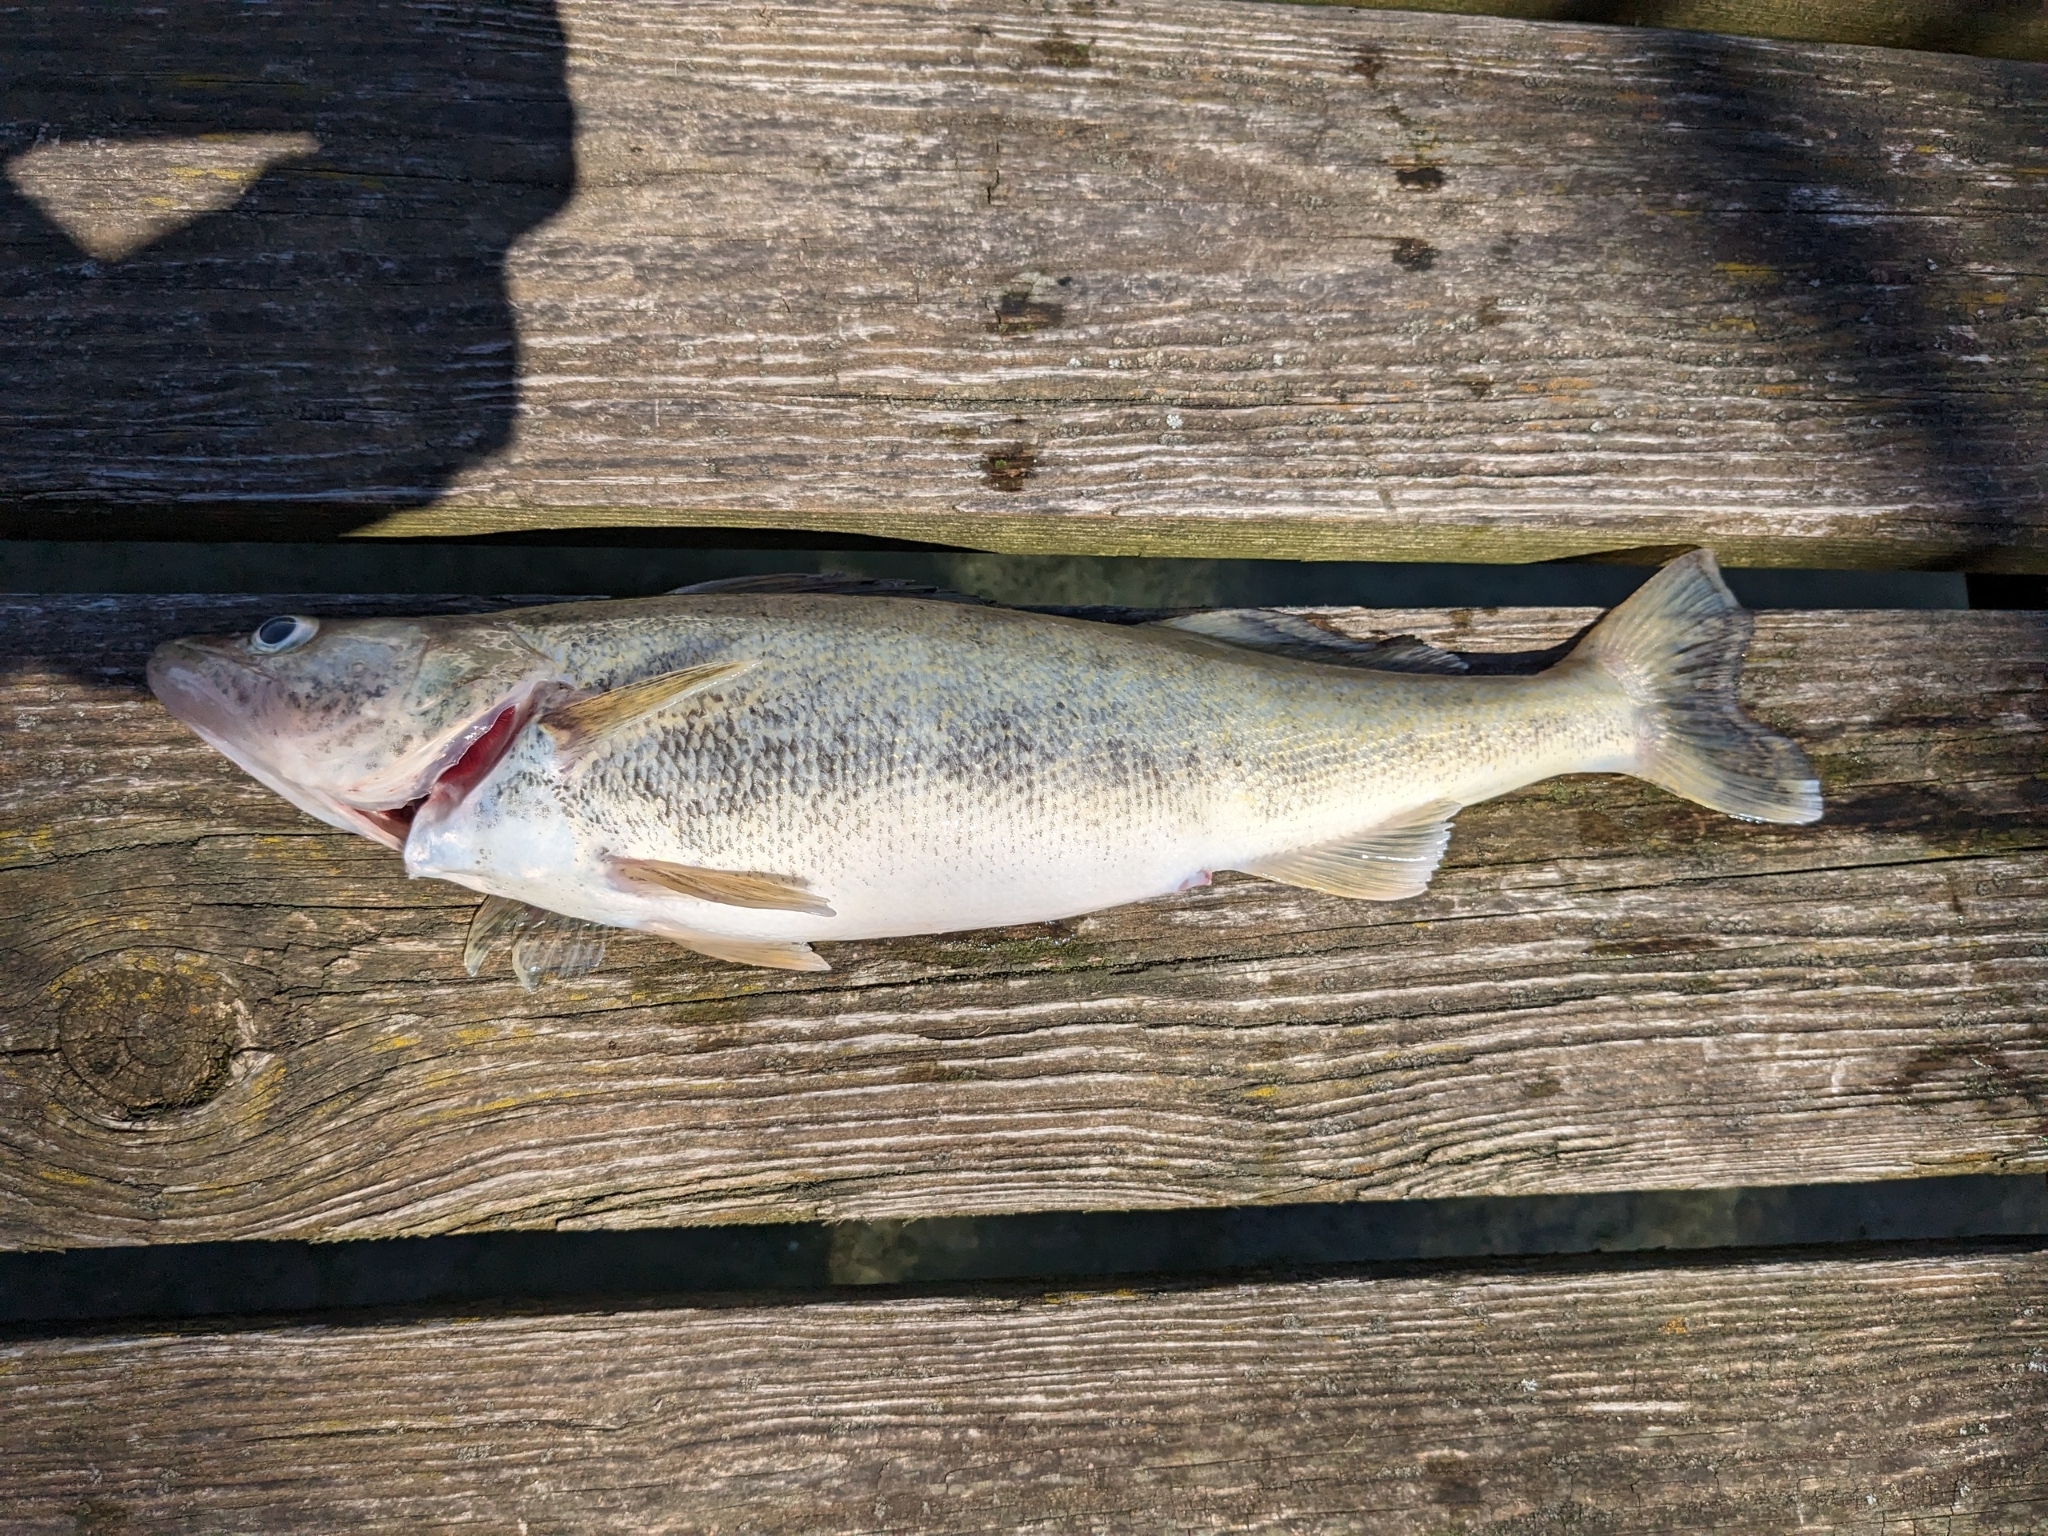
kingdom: Animalia
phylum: Chordata
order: Perciformes
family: Percidae
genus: Sander
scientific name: Sander vitreus
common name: Walleye
